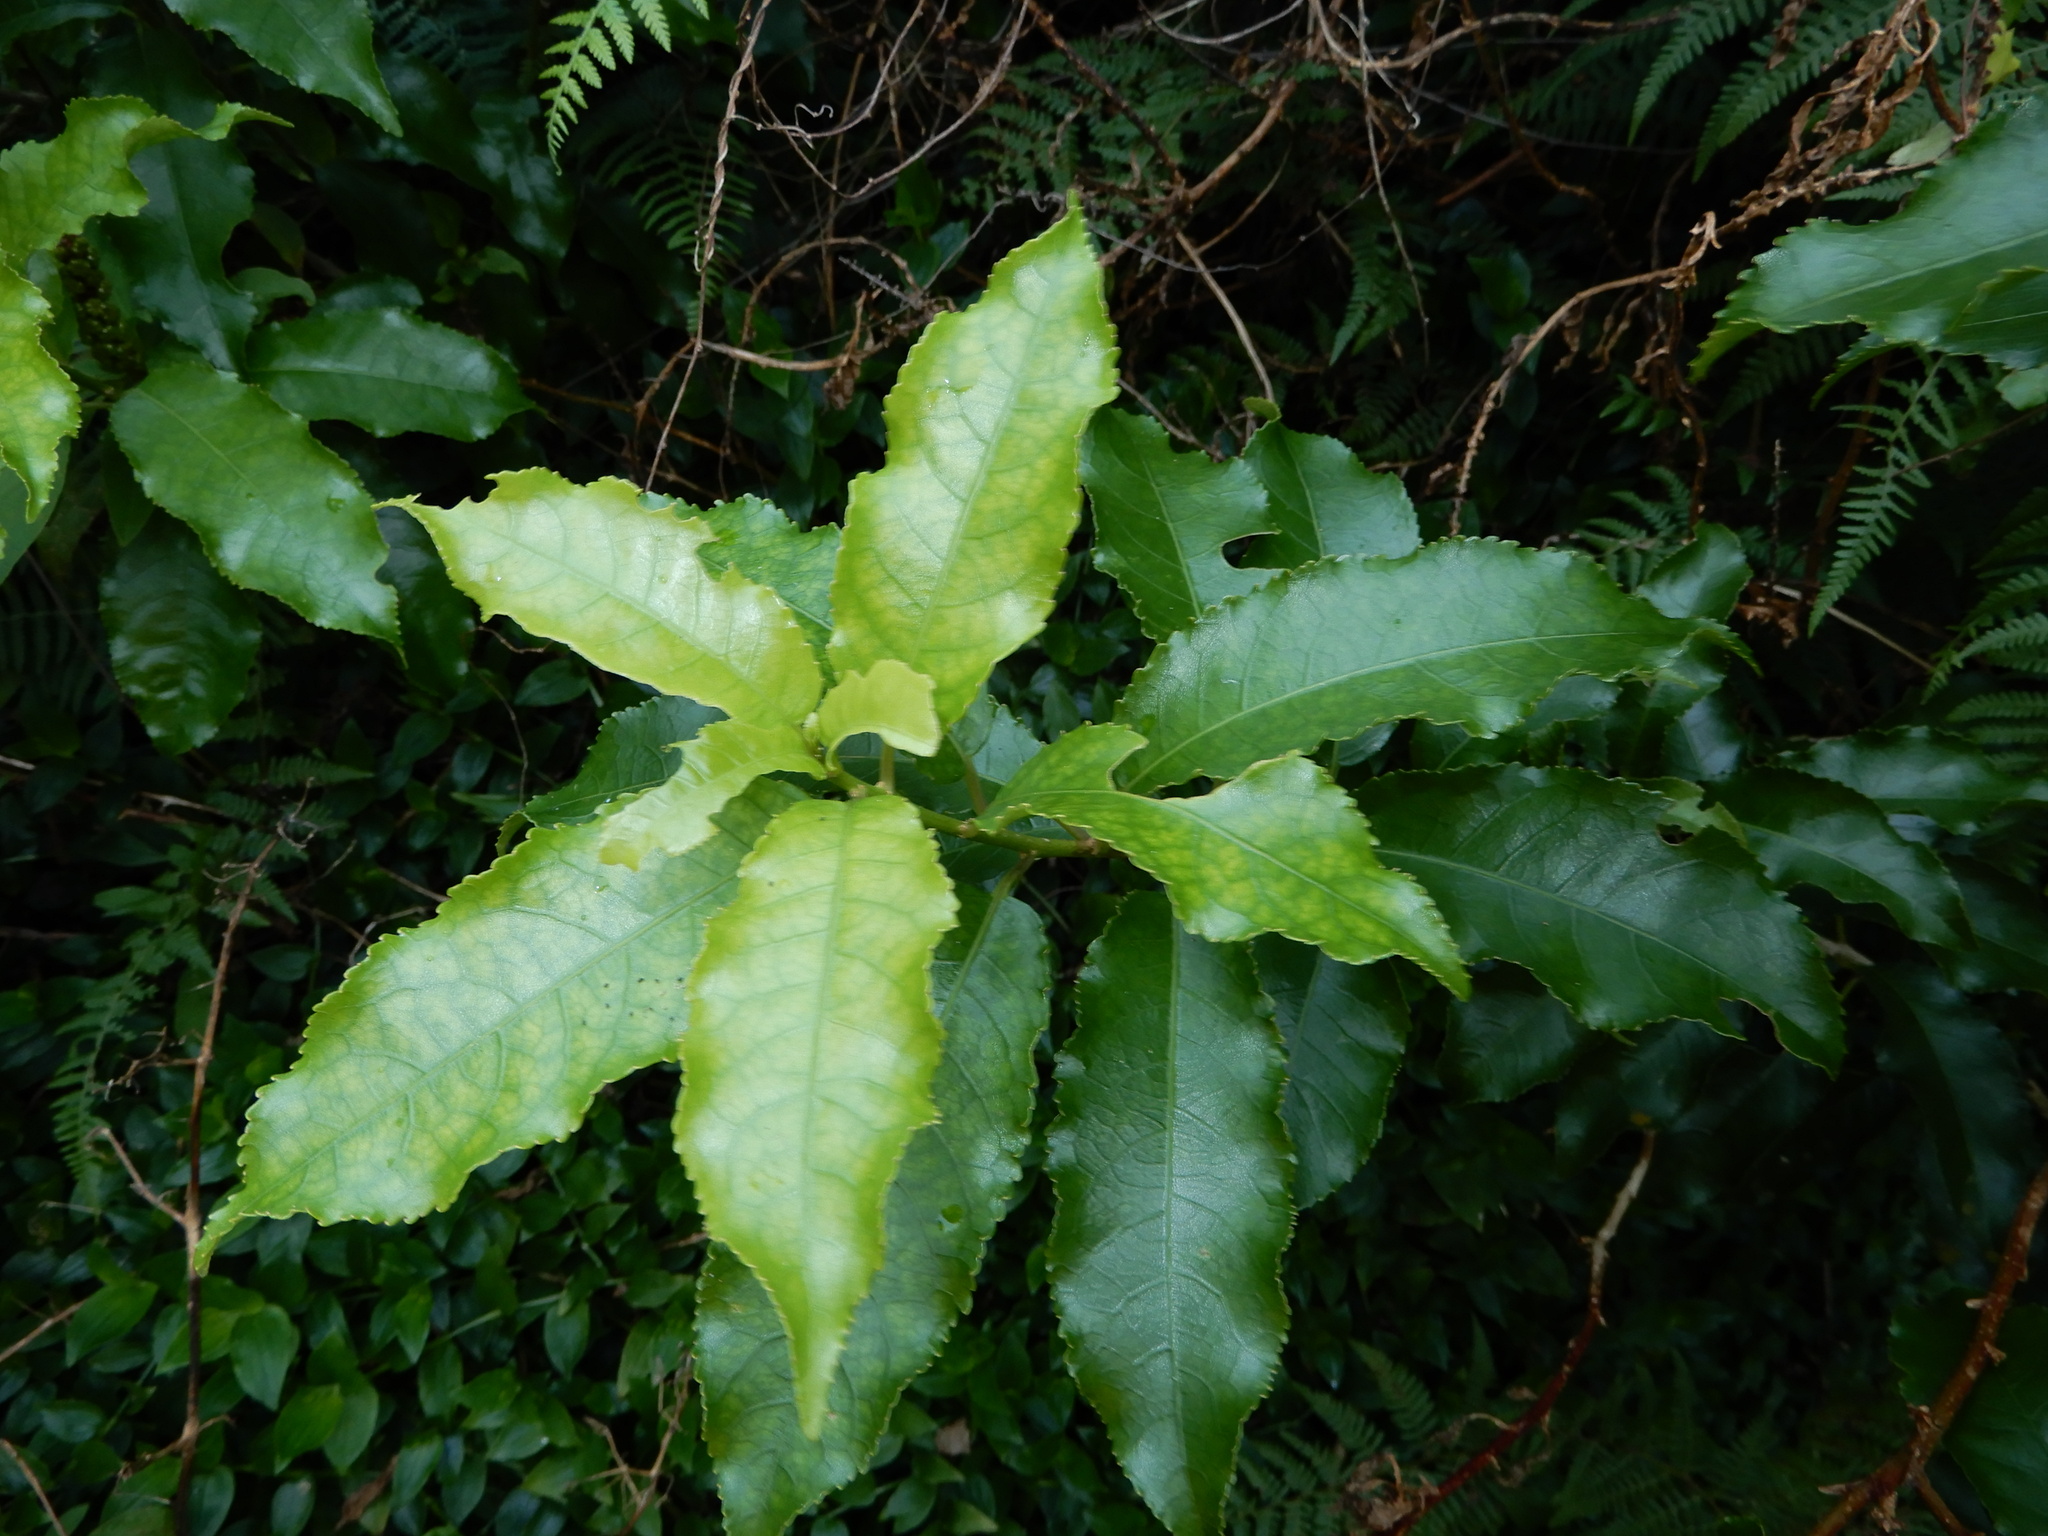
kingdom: Plantae
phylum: Tracheophyta
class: Magnoliopsida
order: Malpighiales
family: Violaceae
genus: Melicytus
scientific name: Melicytus ramiflorus
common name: Mahoe
